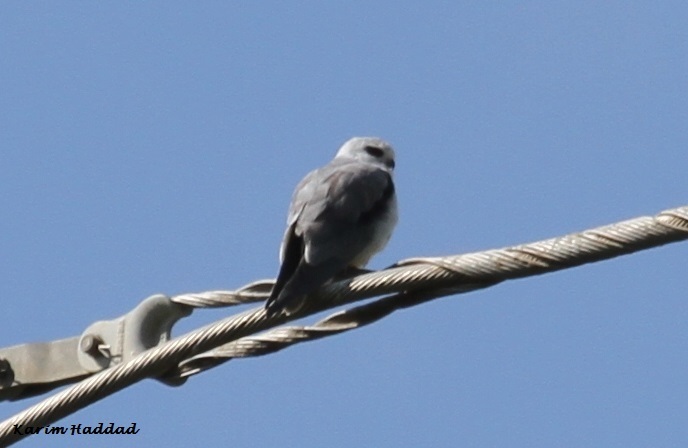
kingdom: Animalia
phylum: Chordata
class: Aves
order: Accipitriformes
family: Accipitridae
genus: Elanus
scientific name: Elanus caeruleus
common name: Black-winged kite
